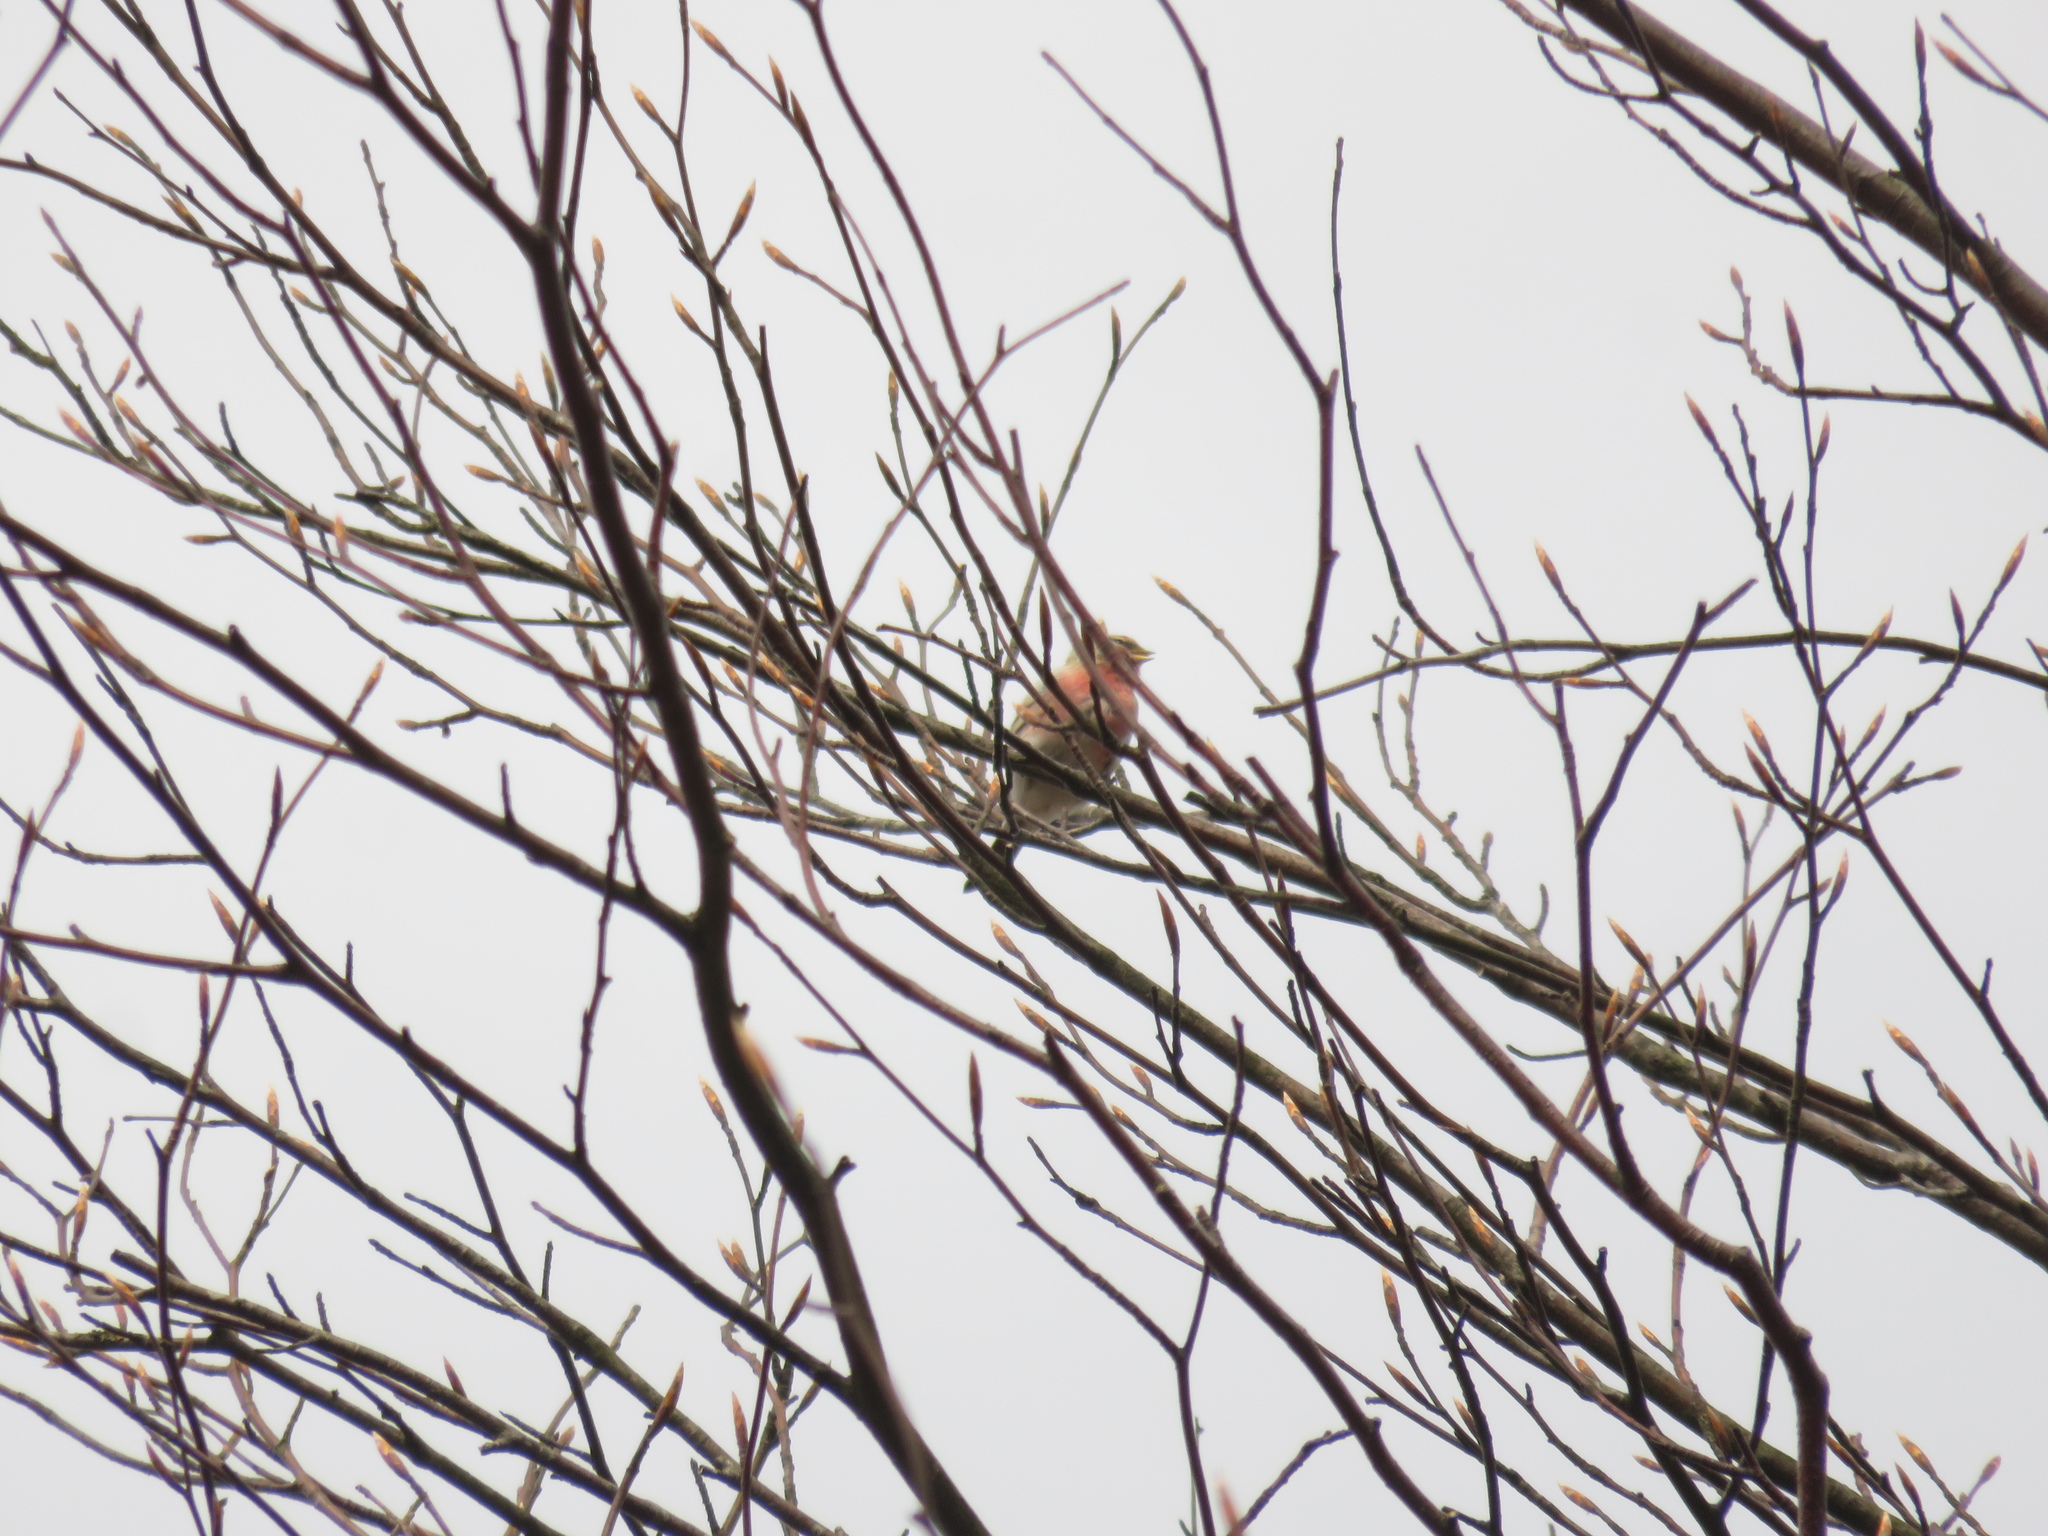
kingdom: Animalia
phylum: Chordata
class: Aves
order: Passeriformes
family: Fringillidae
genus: Linaria
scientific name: Linaria cannabina
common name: Common linnet
